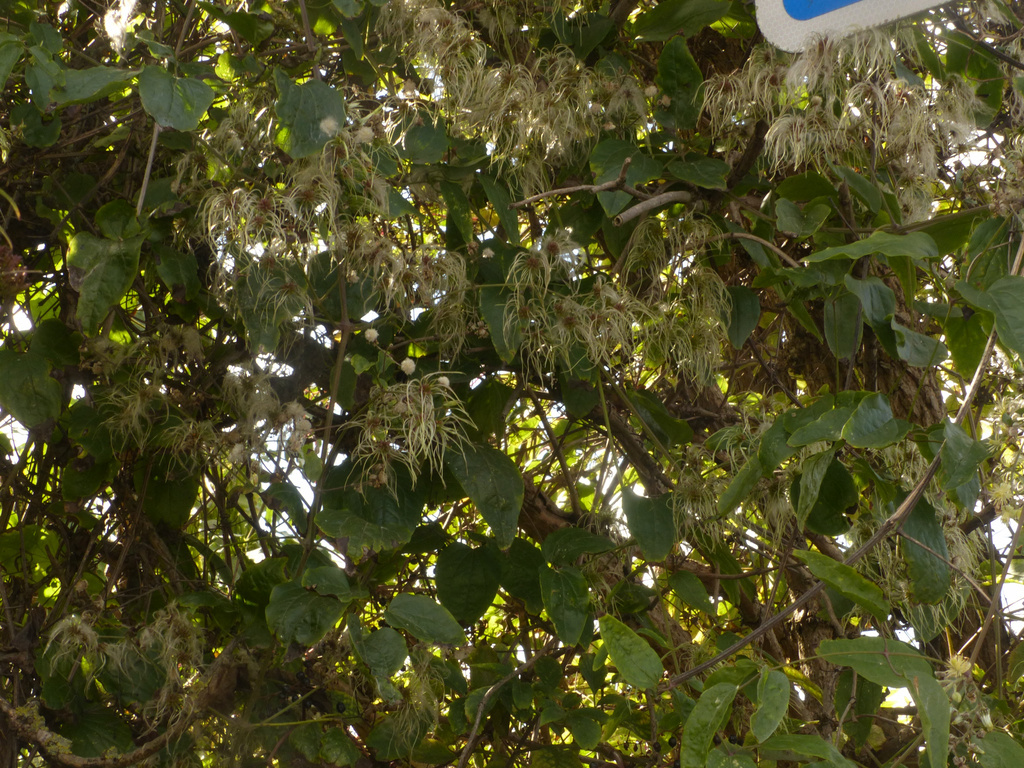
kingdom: Plantae
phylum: Tracheophyta
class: Magnoliopsida
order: Ranunculales
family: Ranunculaceae
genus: Clematis
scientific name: Clematis vitalba
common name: Evergreen clematis
